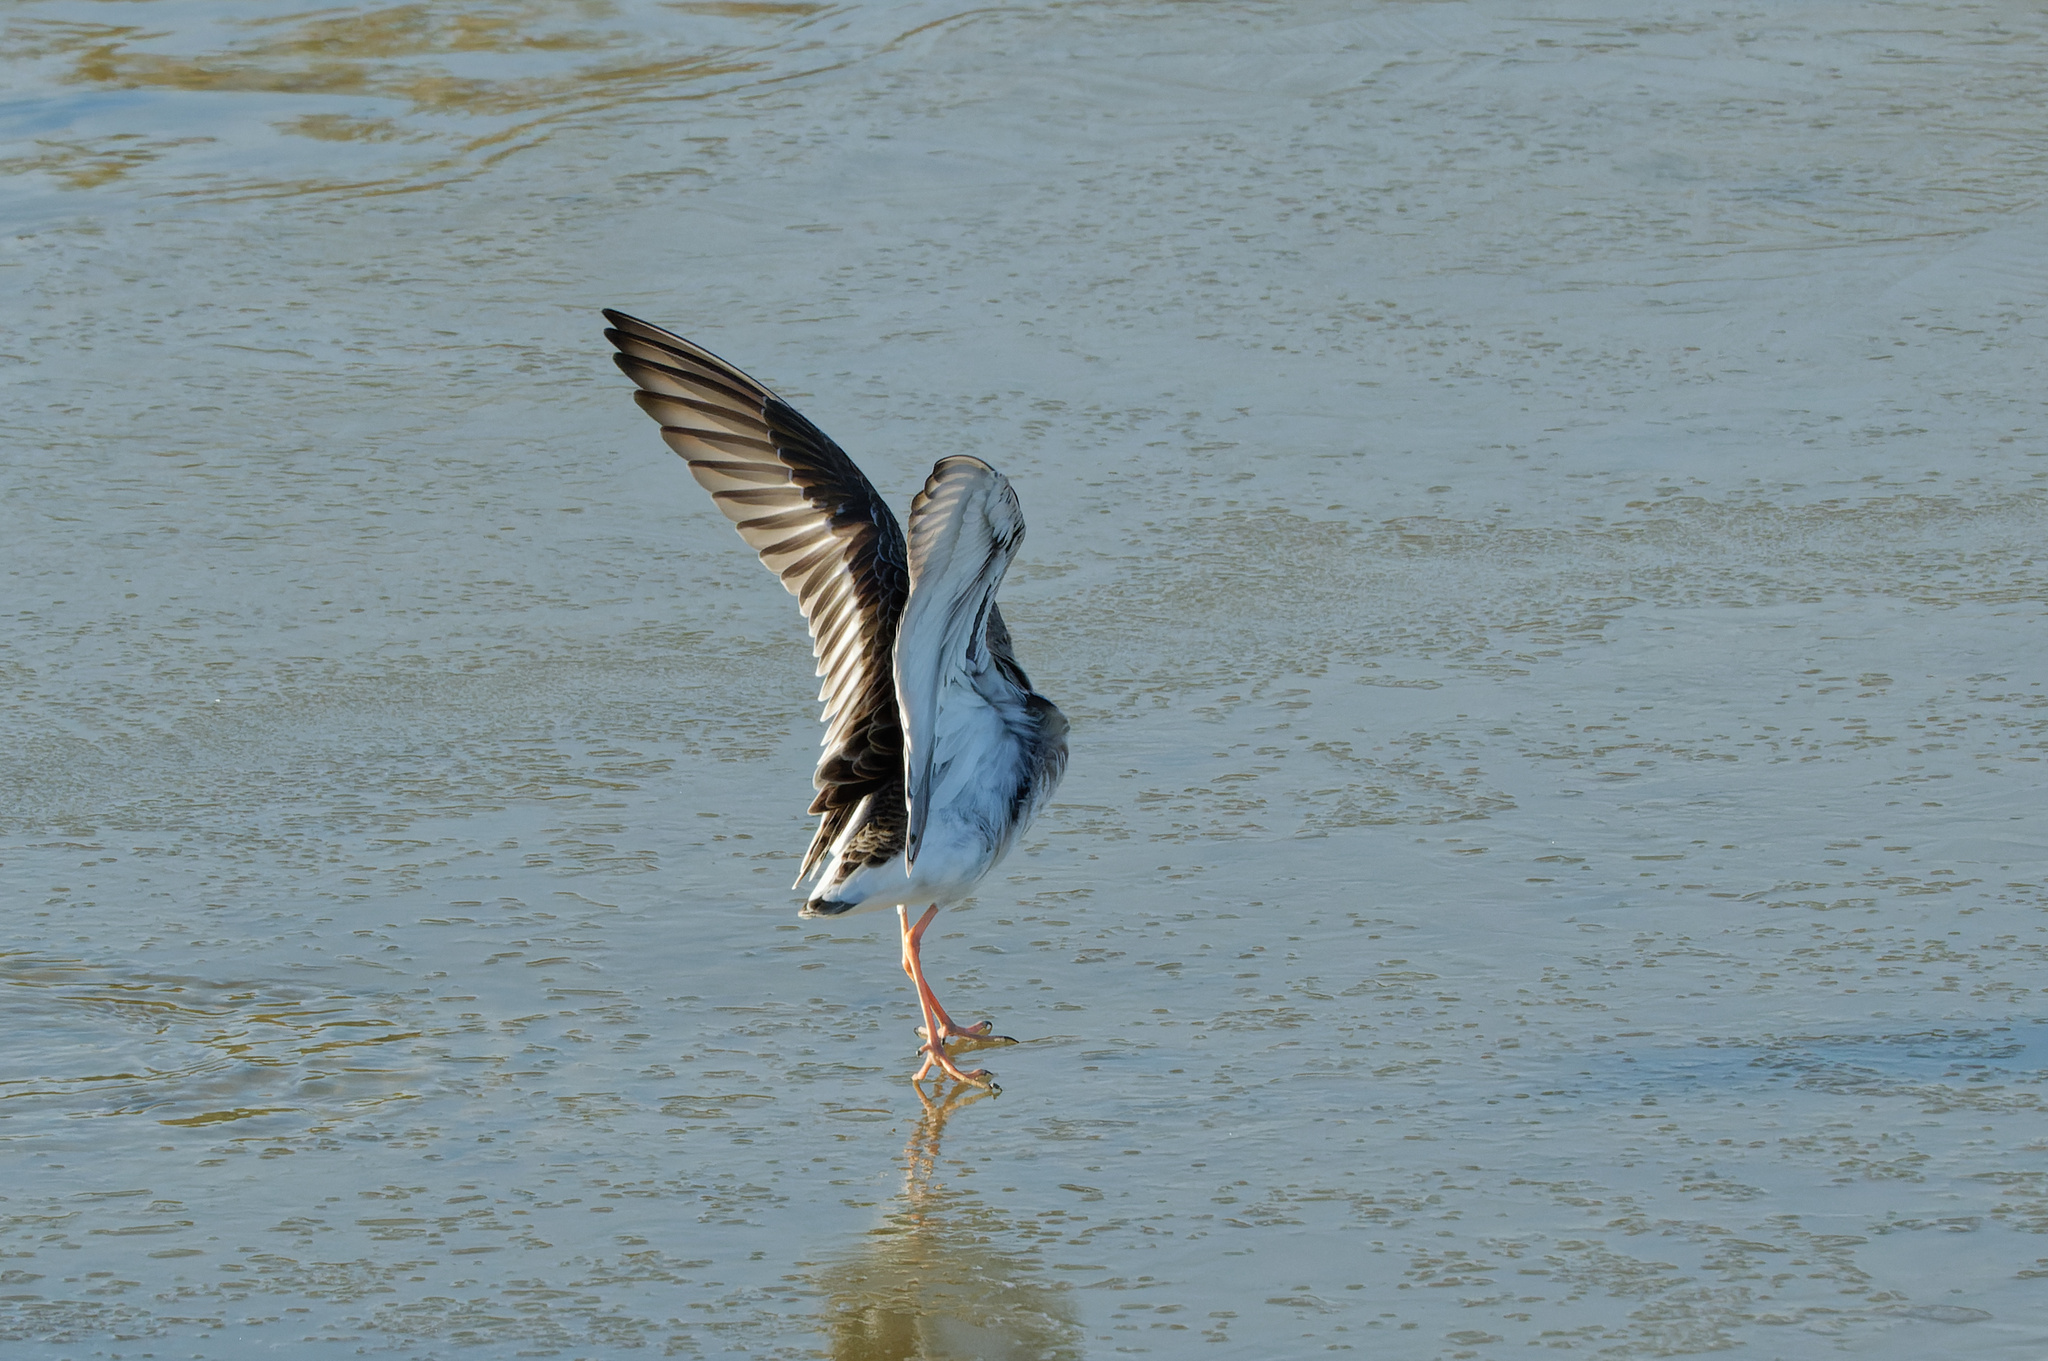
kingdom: Animalia
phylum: Chordata
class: Aves
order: Charadriiformes
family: Scolopacidae
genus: Calidris
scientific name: Calidris pugnax
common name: Ruff
